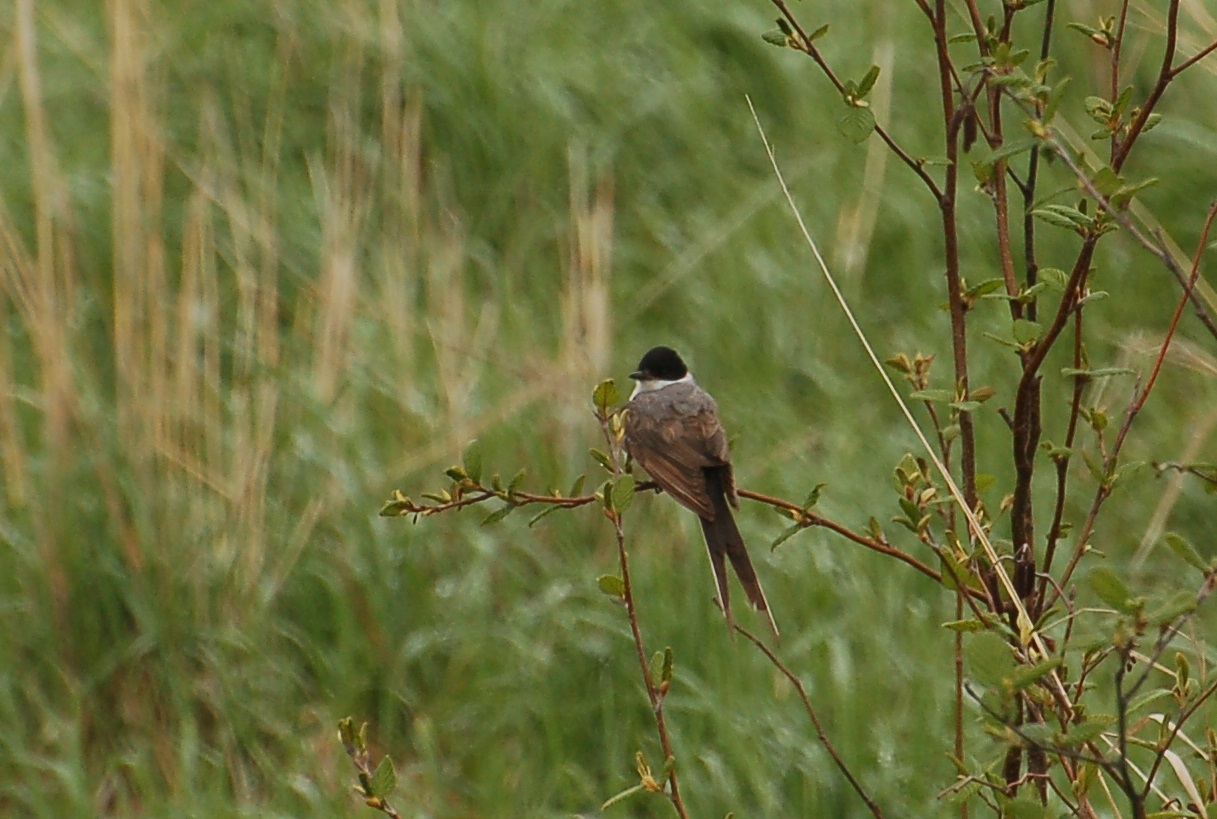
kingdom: Animalia
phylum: Chordata
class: Aves
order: Passeriformes
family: Tyrannidae
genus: Tyrannus
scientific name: Tyrannus savana
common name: Fork-tailed flycatcher
